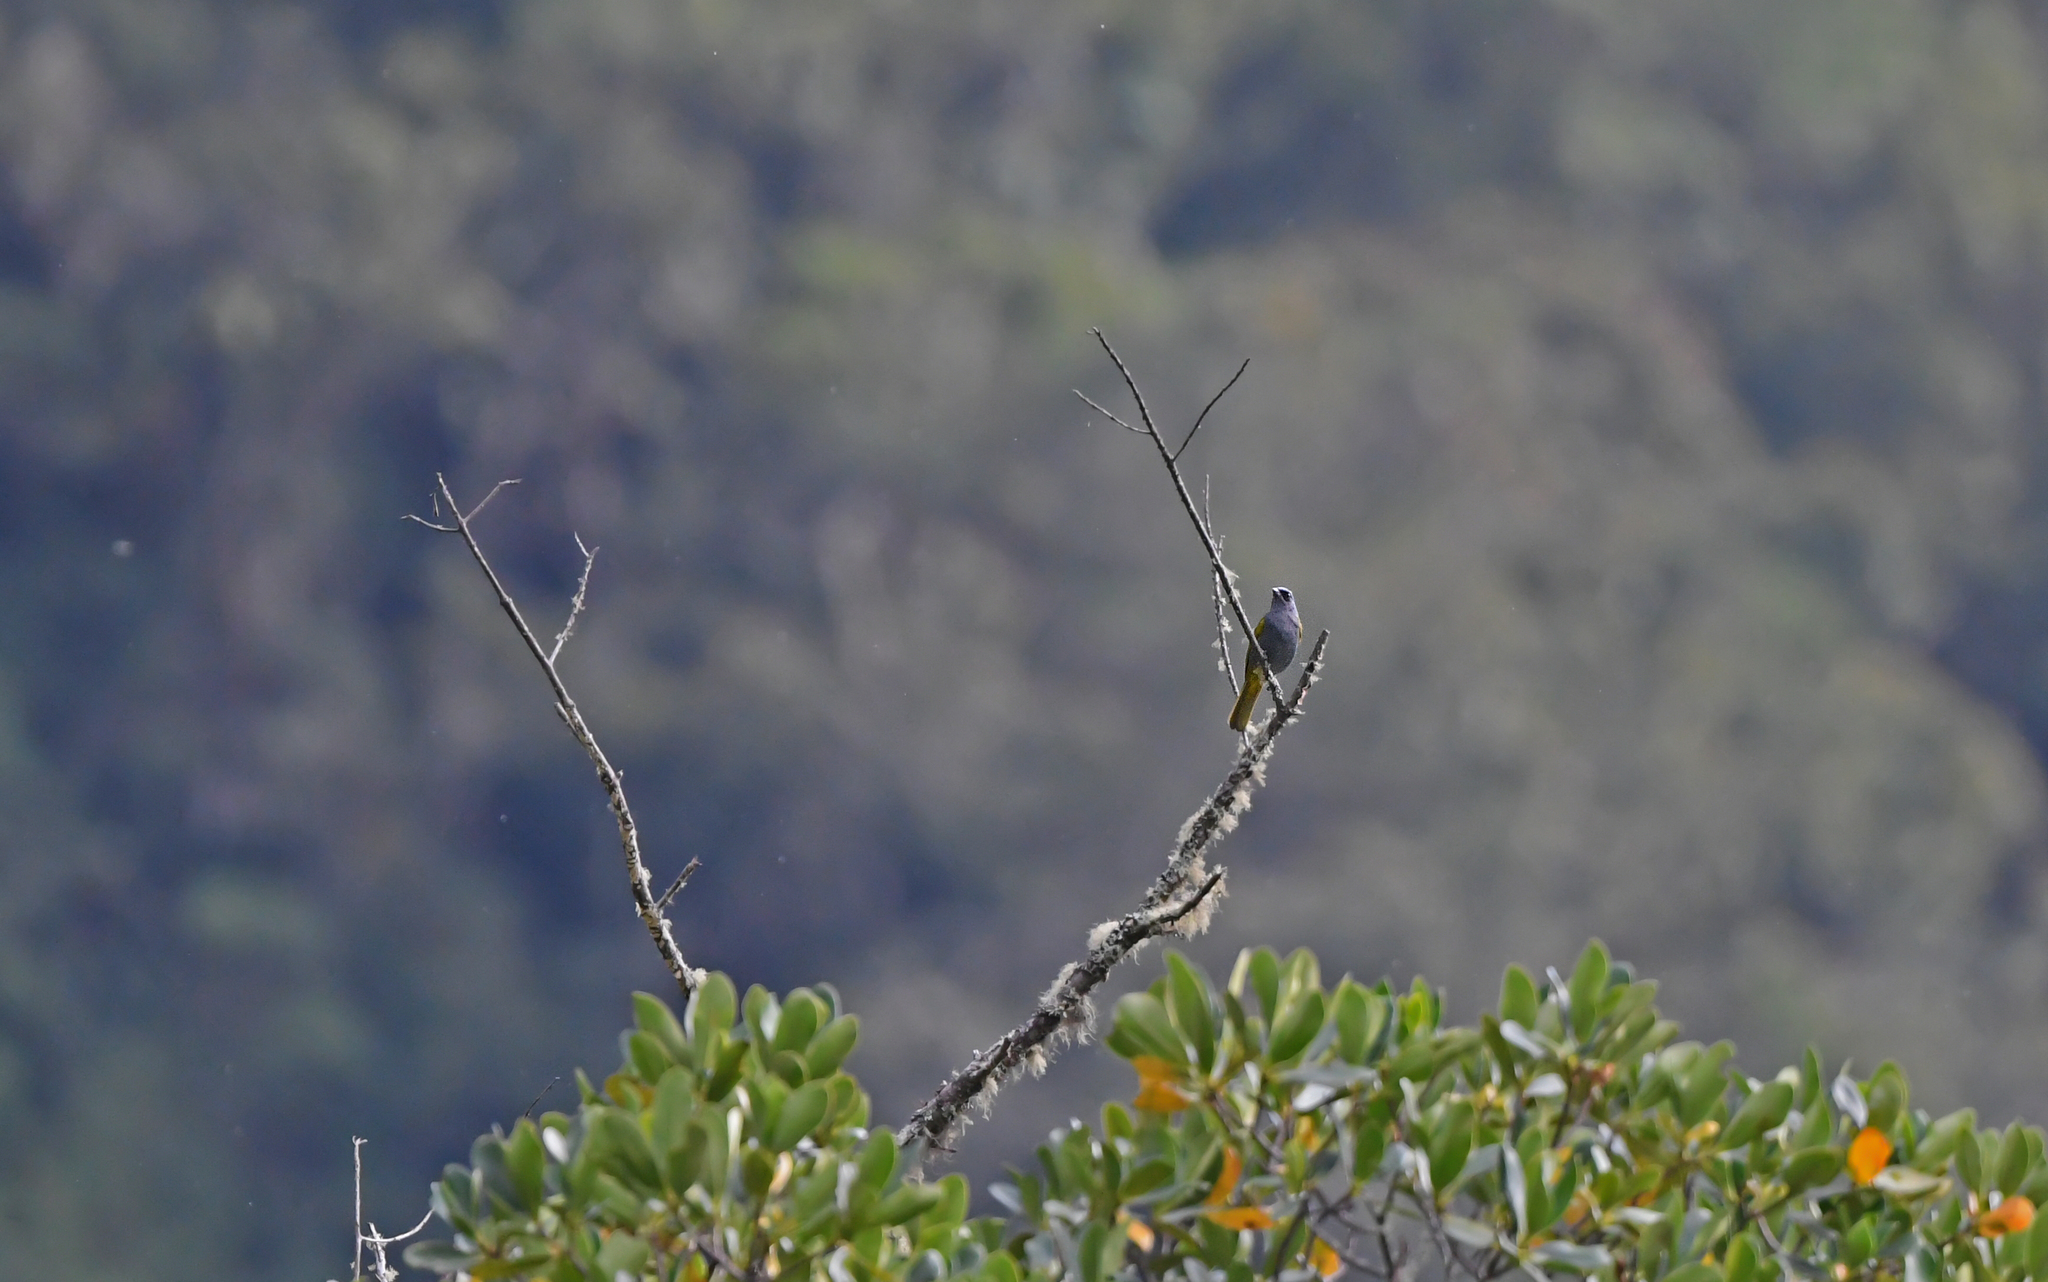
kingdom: Animalia
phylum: Chordata
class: Aves
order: Passeriformes
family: Thraupidae
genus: Sporathraupis
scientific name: Sporathraupis cyanocephala
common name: Blue-capped tanager
